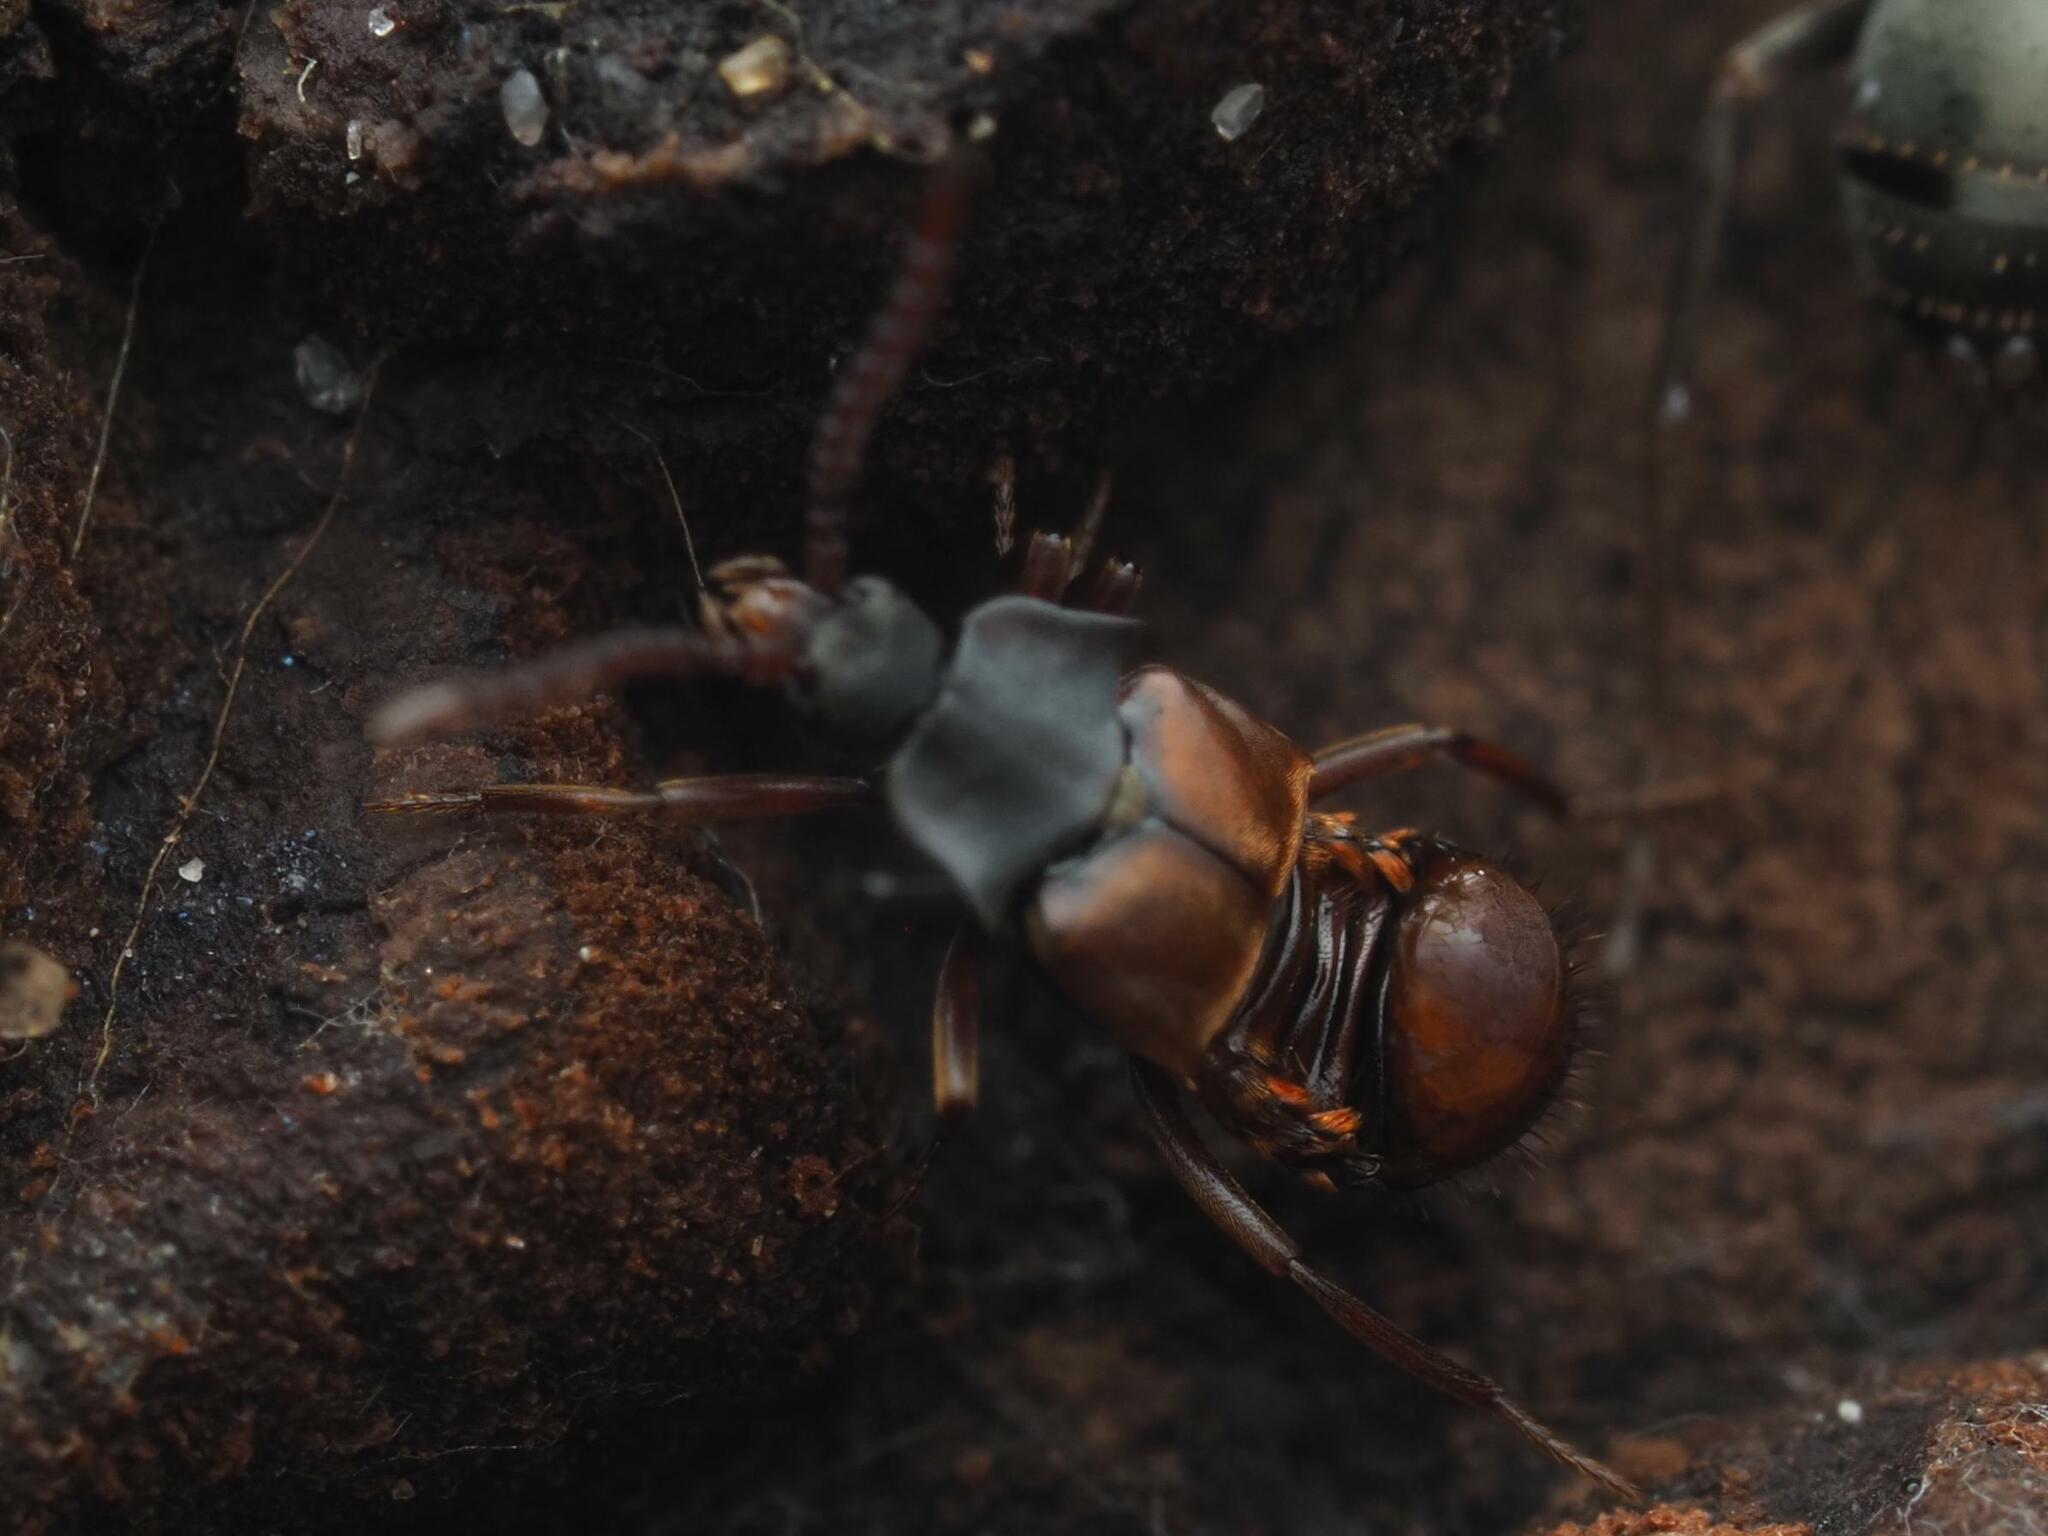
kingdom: Animalia
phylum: Arthropoda
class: Insecta
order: Coleoptera
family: Staphylinidae
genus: Lomechusa
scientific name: Lomechusa emarginata
